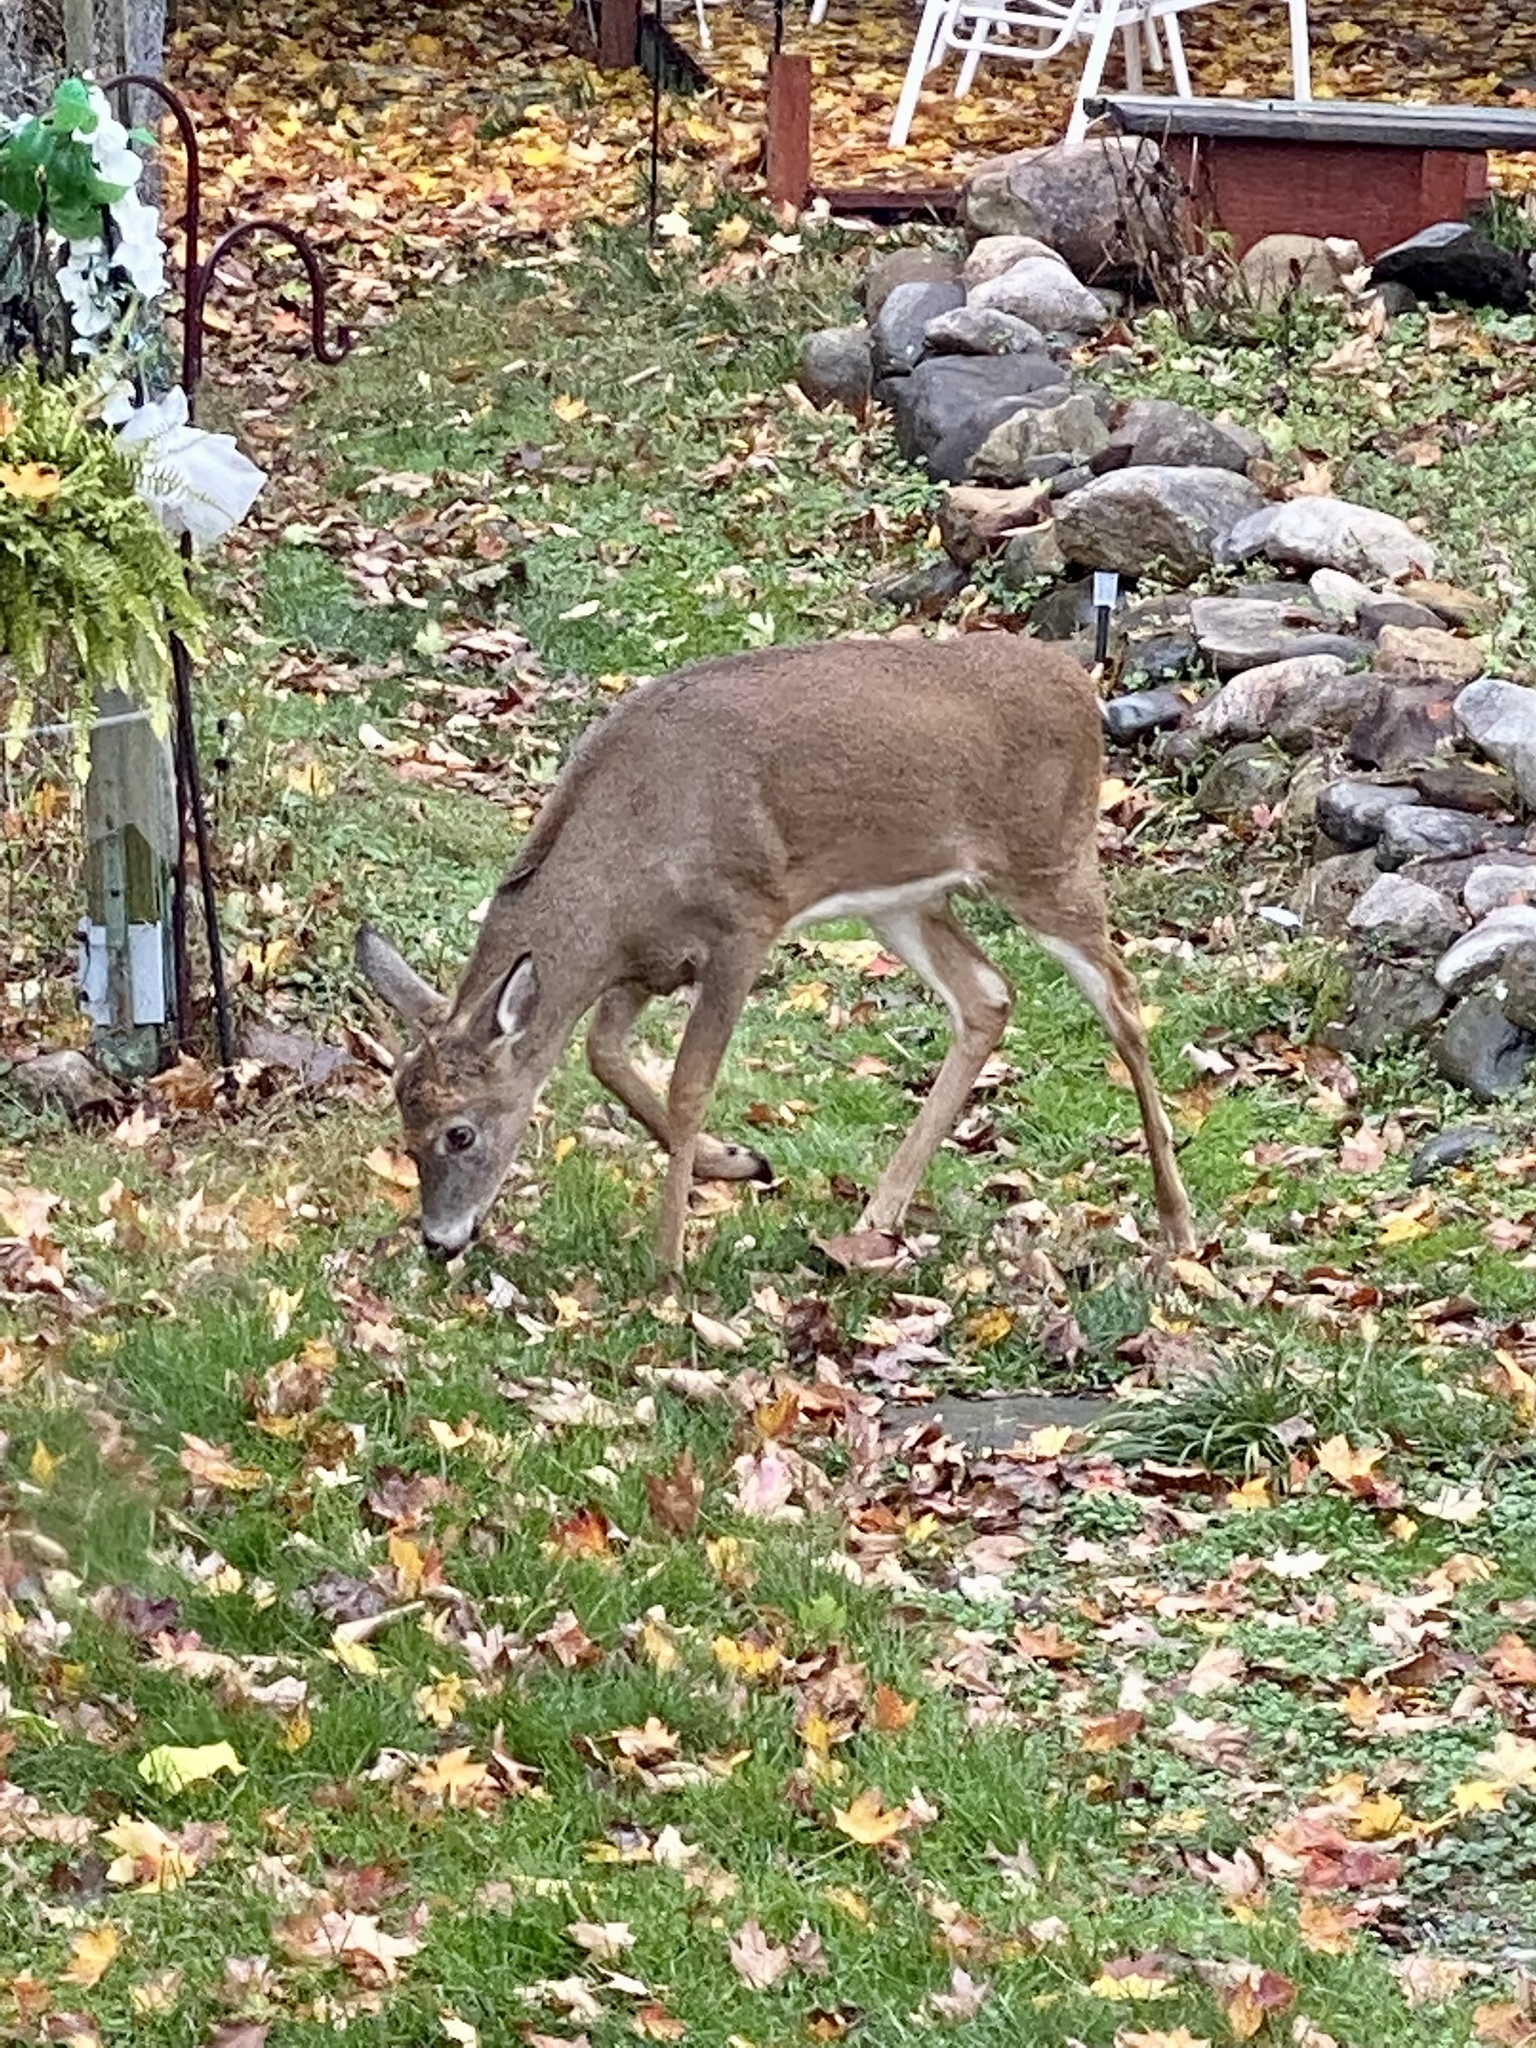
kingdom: Animalia
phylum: Chordata
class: Mammalia
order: Artiodactyla
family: Cervidae
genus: Odocoileus
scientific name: Odocoileus virginianus
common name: White-tailed deer
